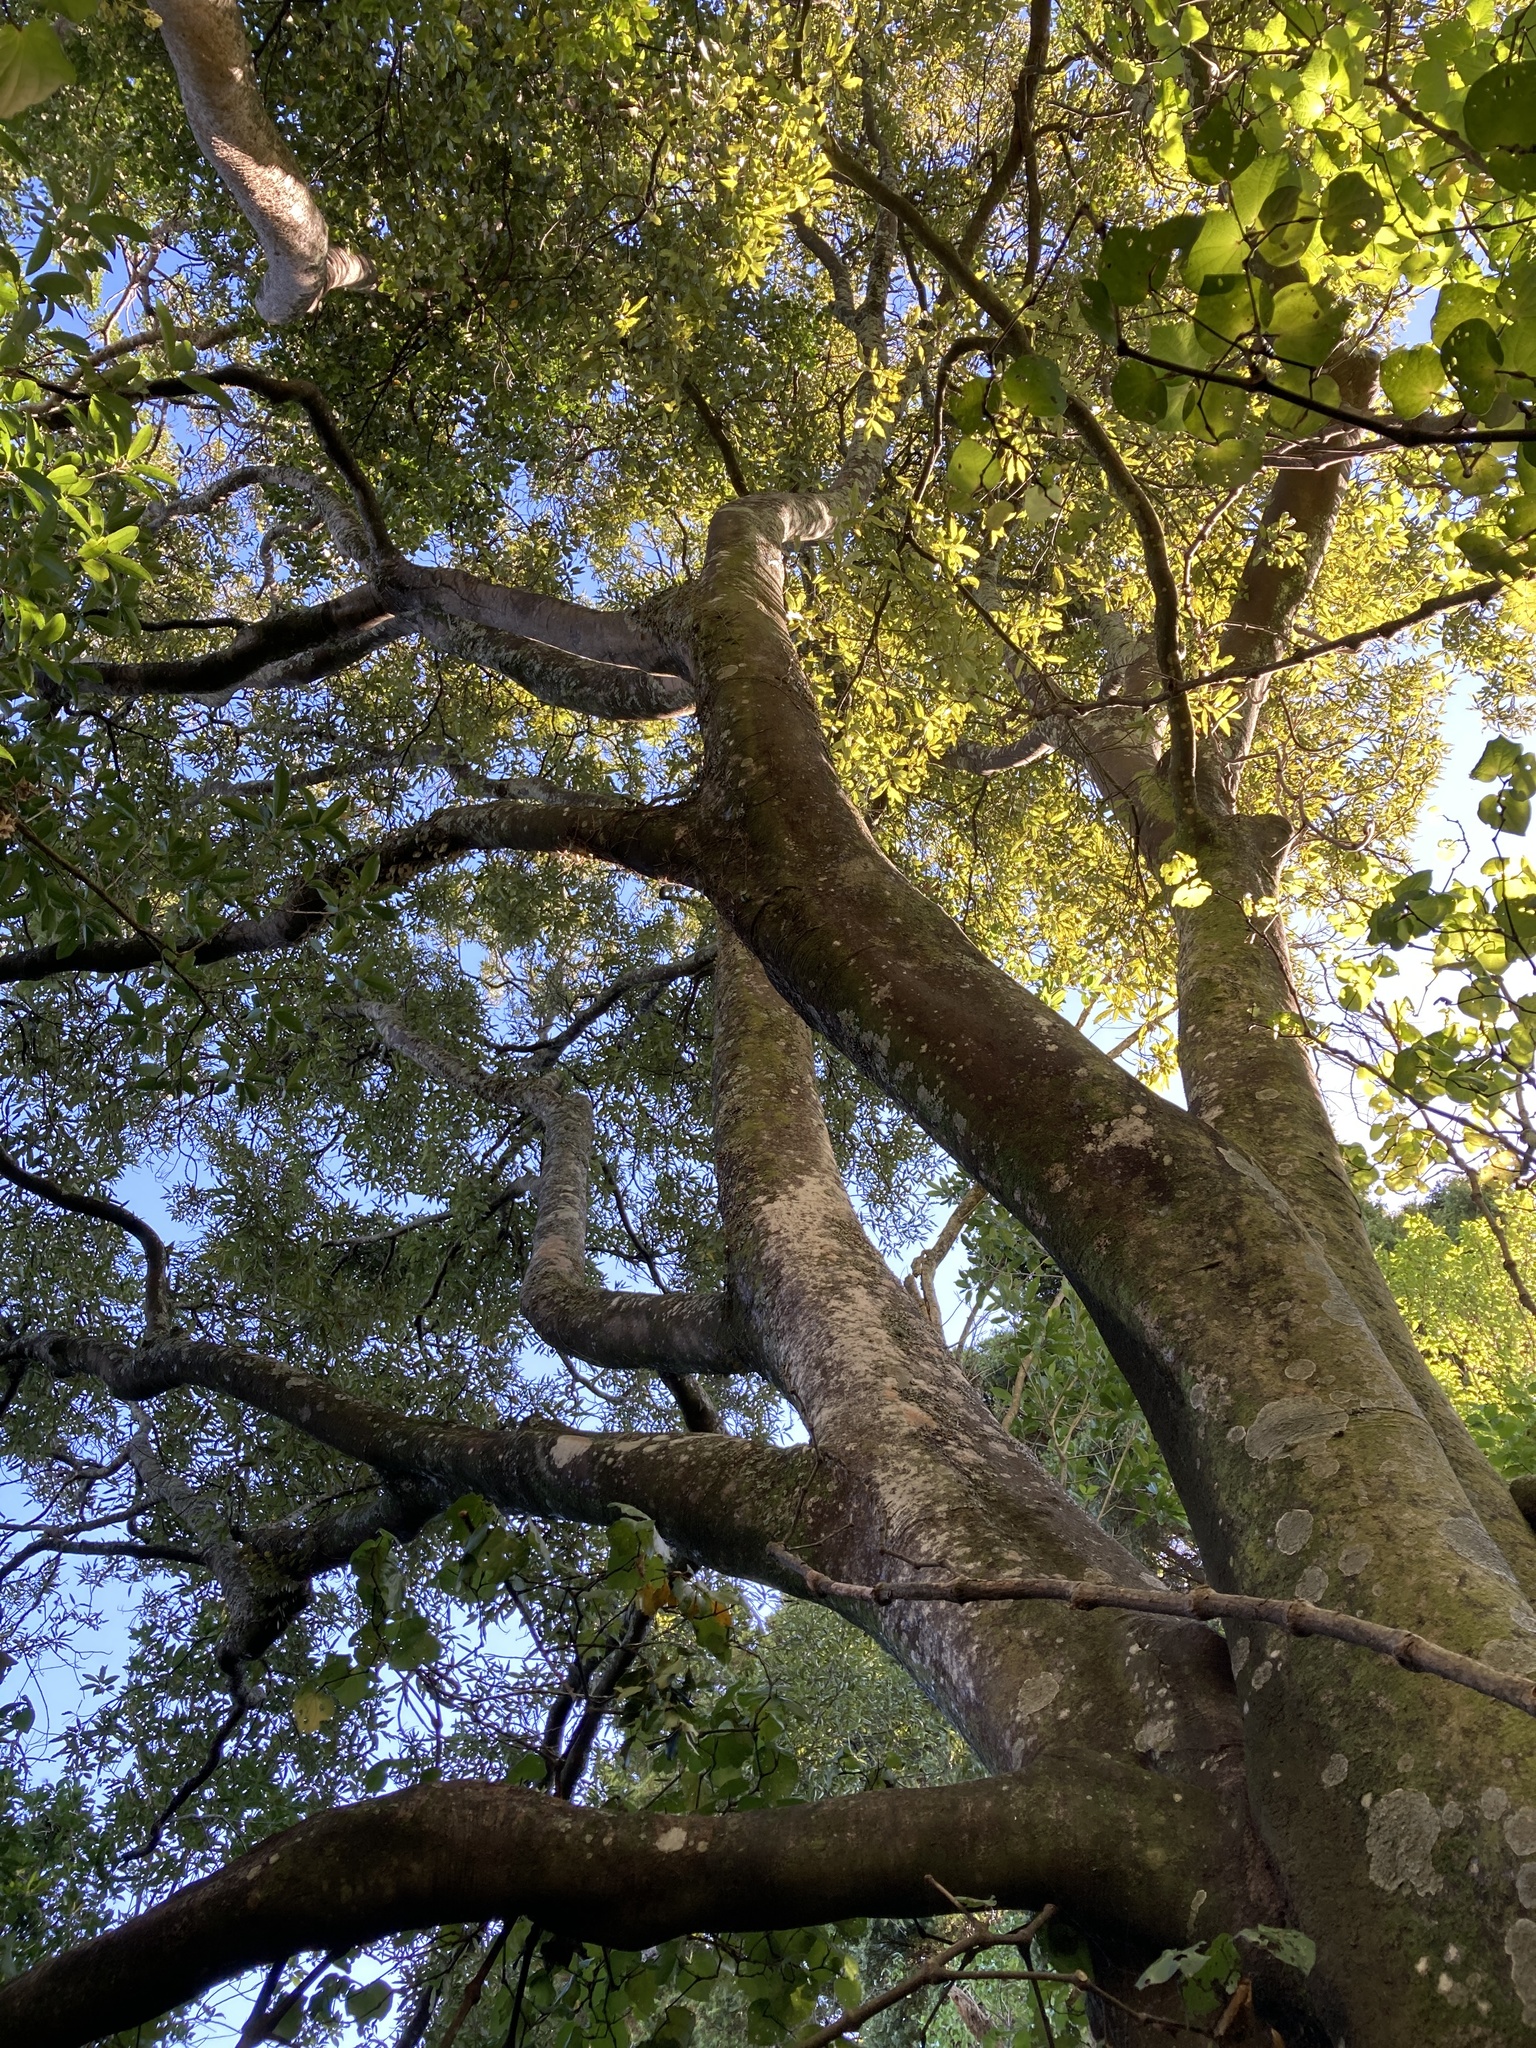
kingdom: Plantae
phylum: Tracheophyta
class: Magnoliopsida
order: Laurales
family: Lauraceae
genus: Beilschmiedia
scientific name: Beilschmiedia tawa
